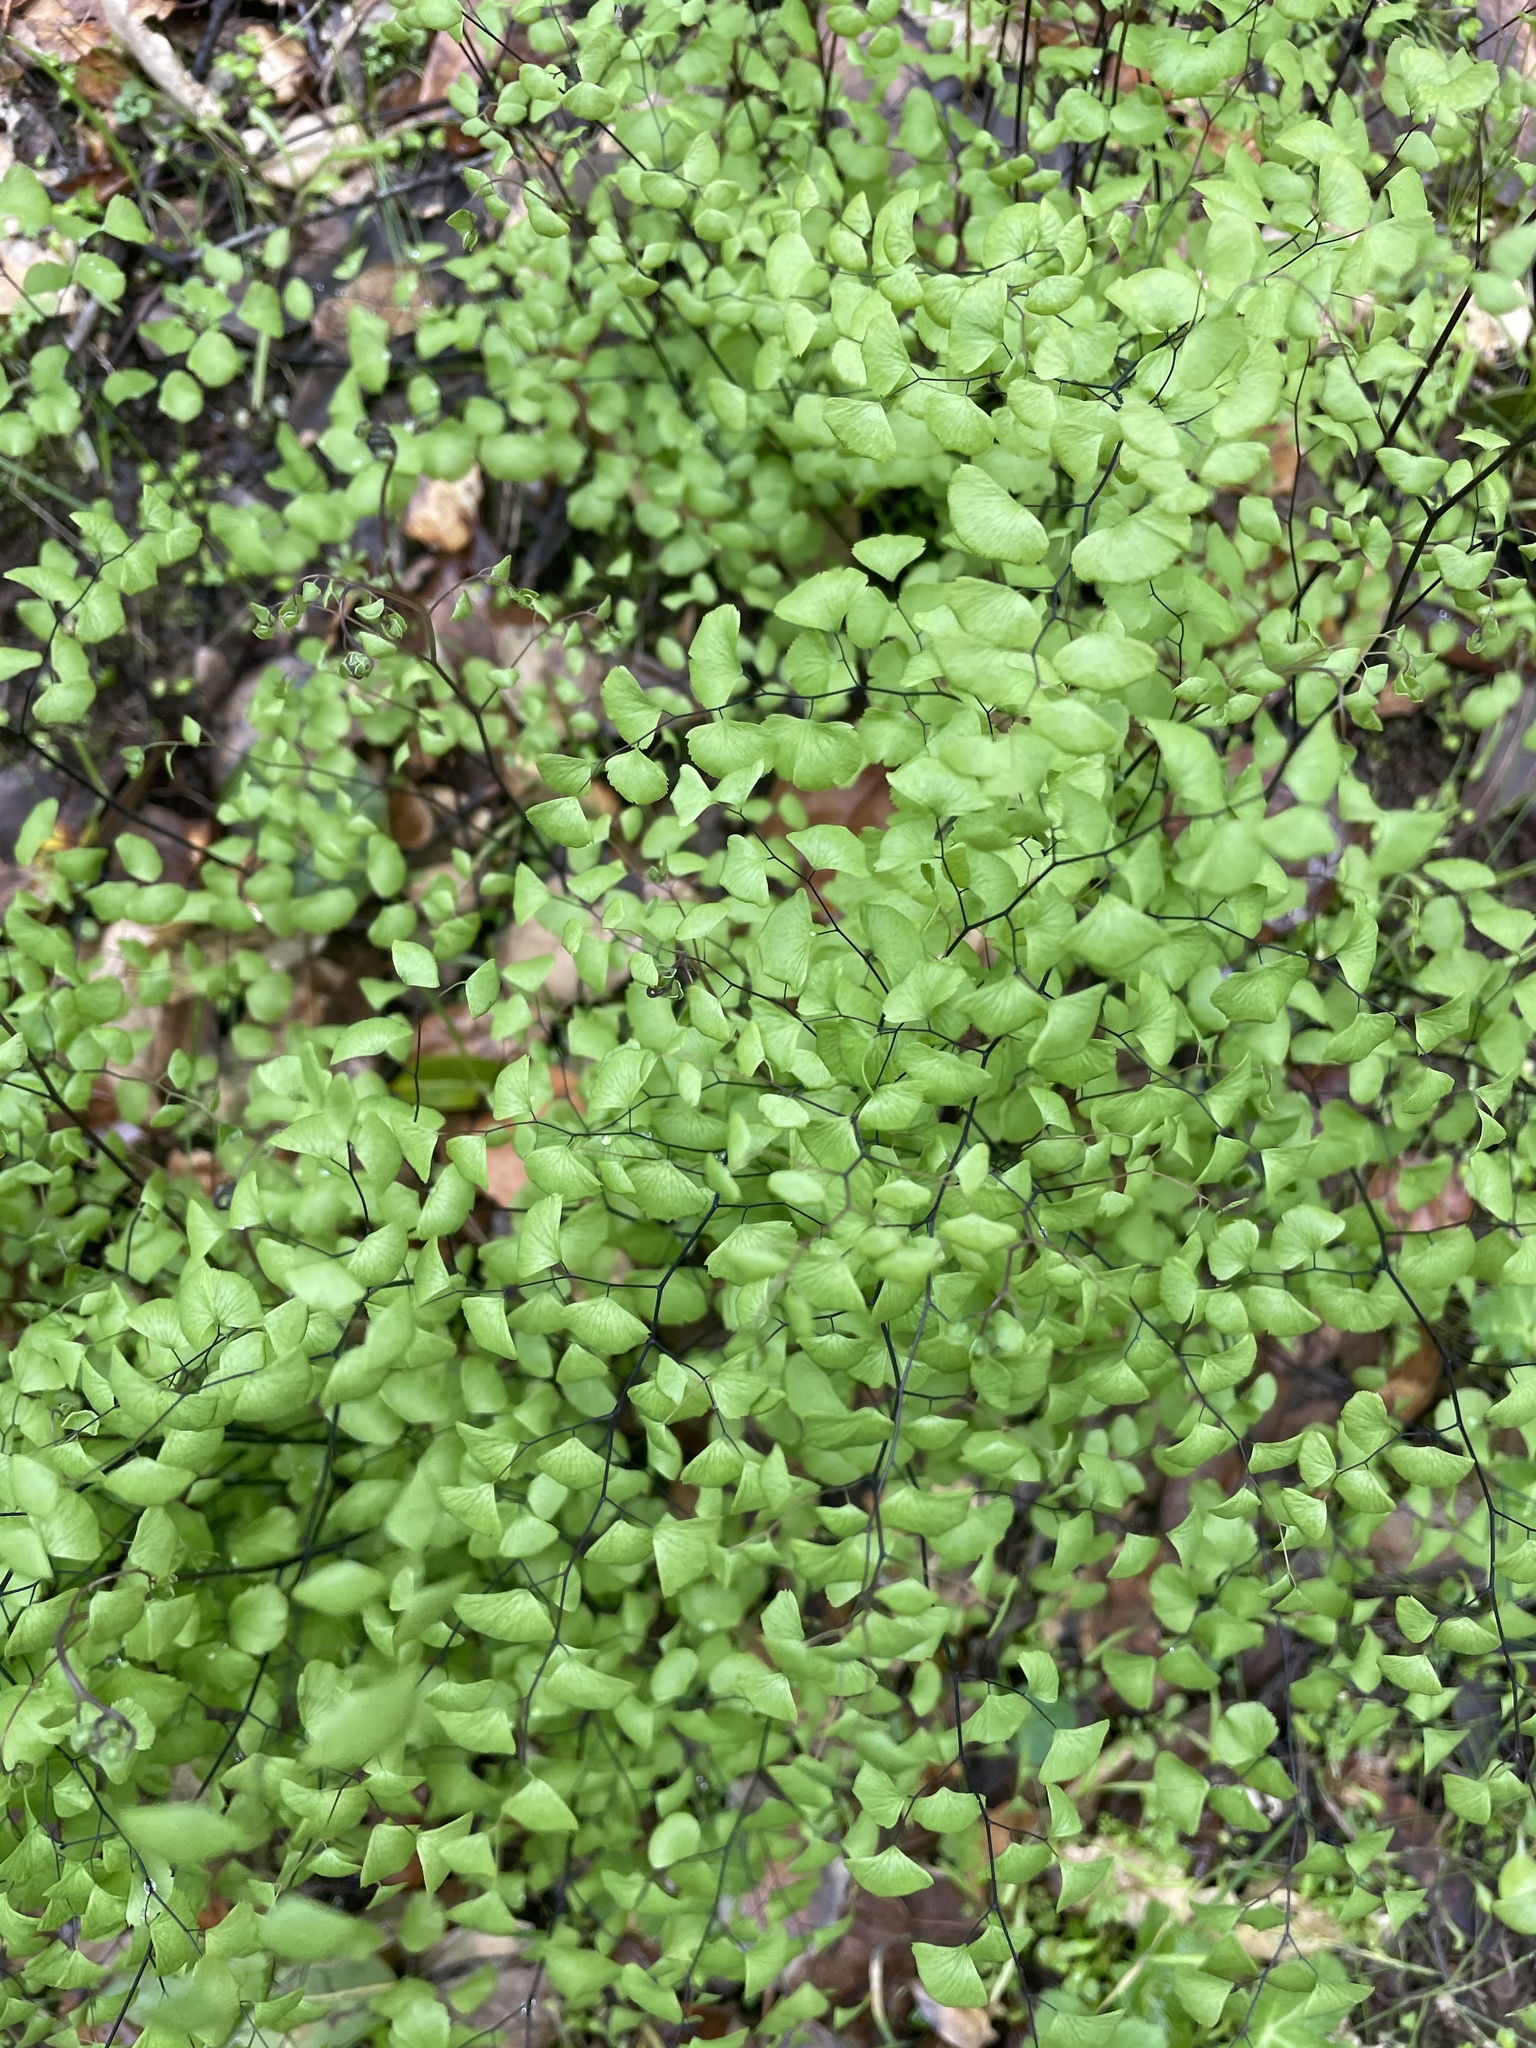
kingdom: Plantae
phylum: Tracheophyta
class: Polypodiopsida
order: Polypodiales
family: Pteridaceae
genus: Adiantum
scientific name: Adiantum jordanii
